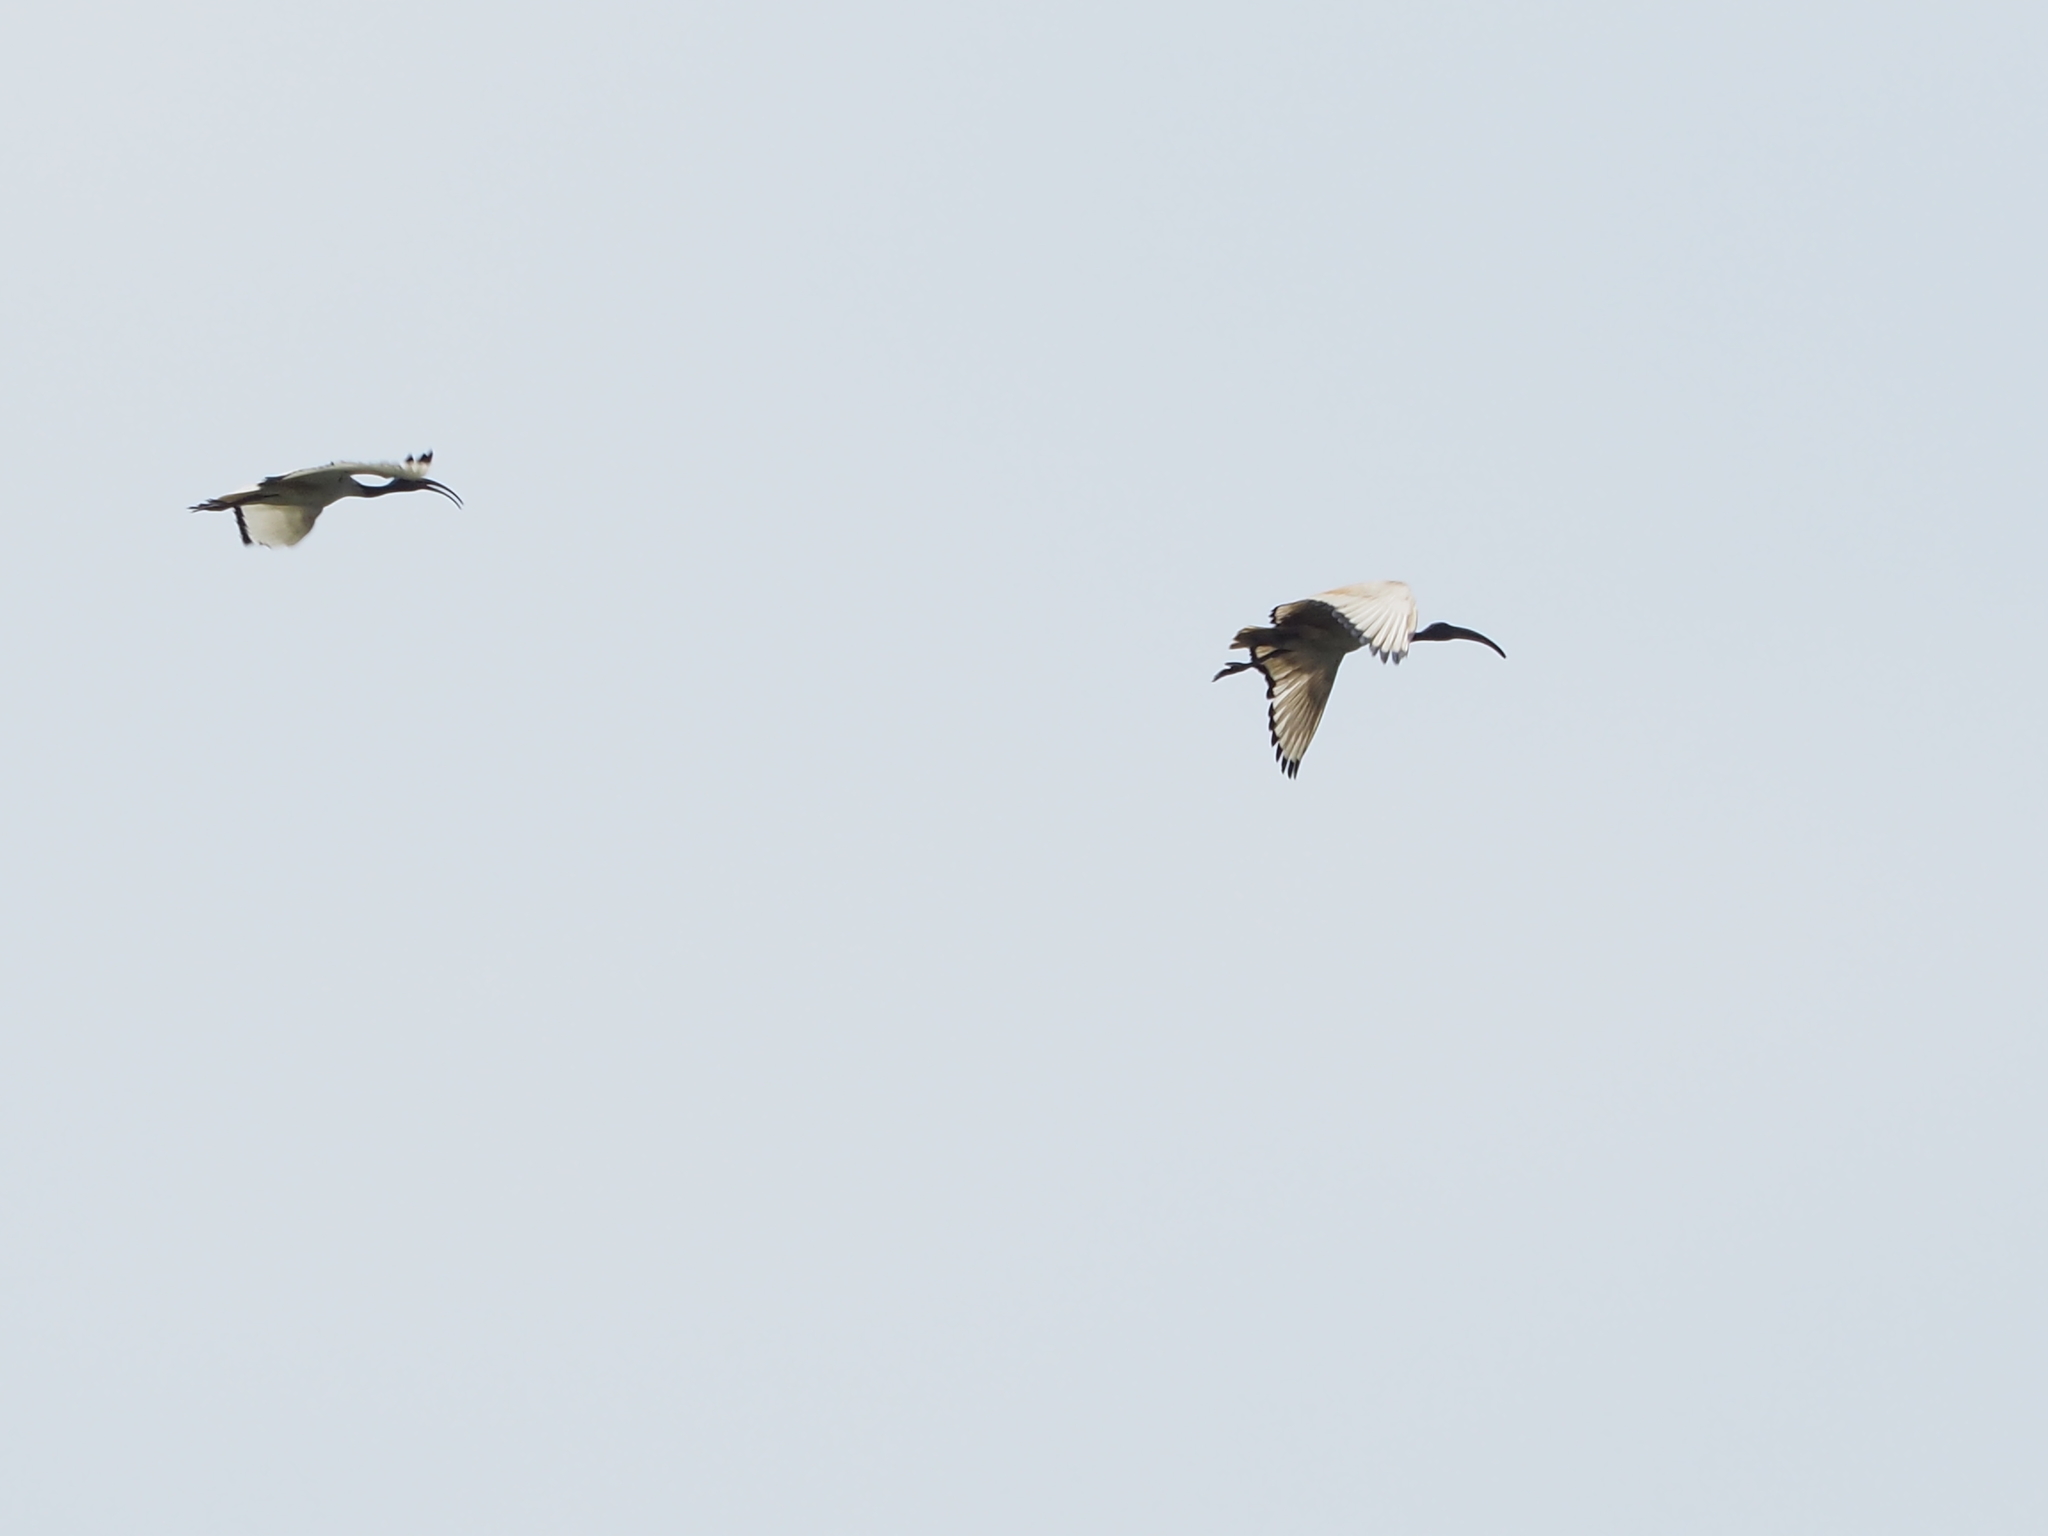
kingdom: Animalia
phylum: Chordata
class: Aves
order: Pelecaniformes
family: Threskiornithidae
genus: Threskiornis
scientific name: Threskiornis aethiopicus
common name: Sacred ibis
